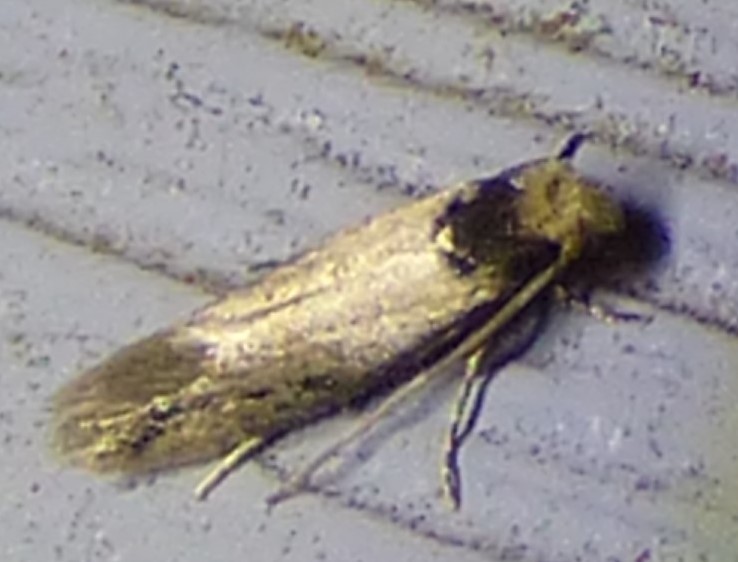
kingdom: Animalia
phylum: Arthropoda
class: Insecta
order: Lepidoptera
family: Tineidae
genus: Tinea
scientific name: Tinea apicimaculella
